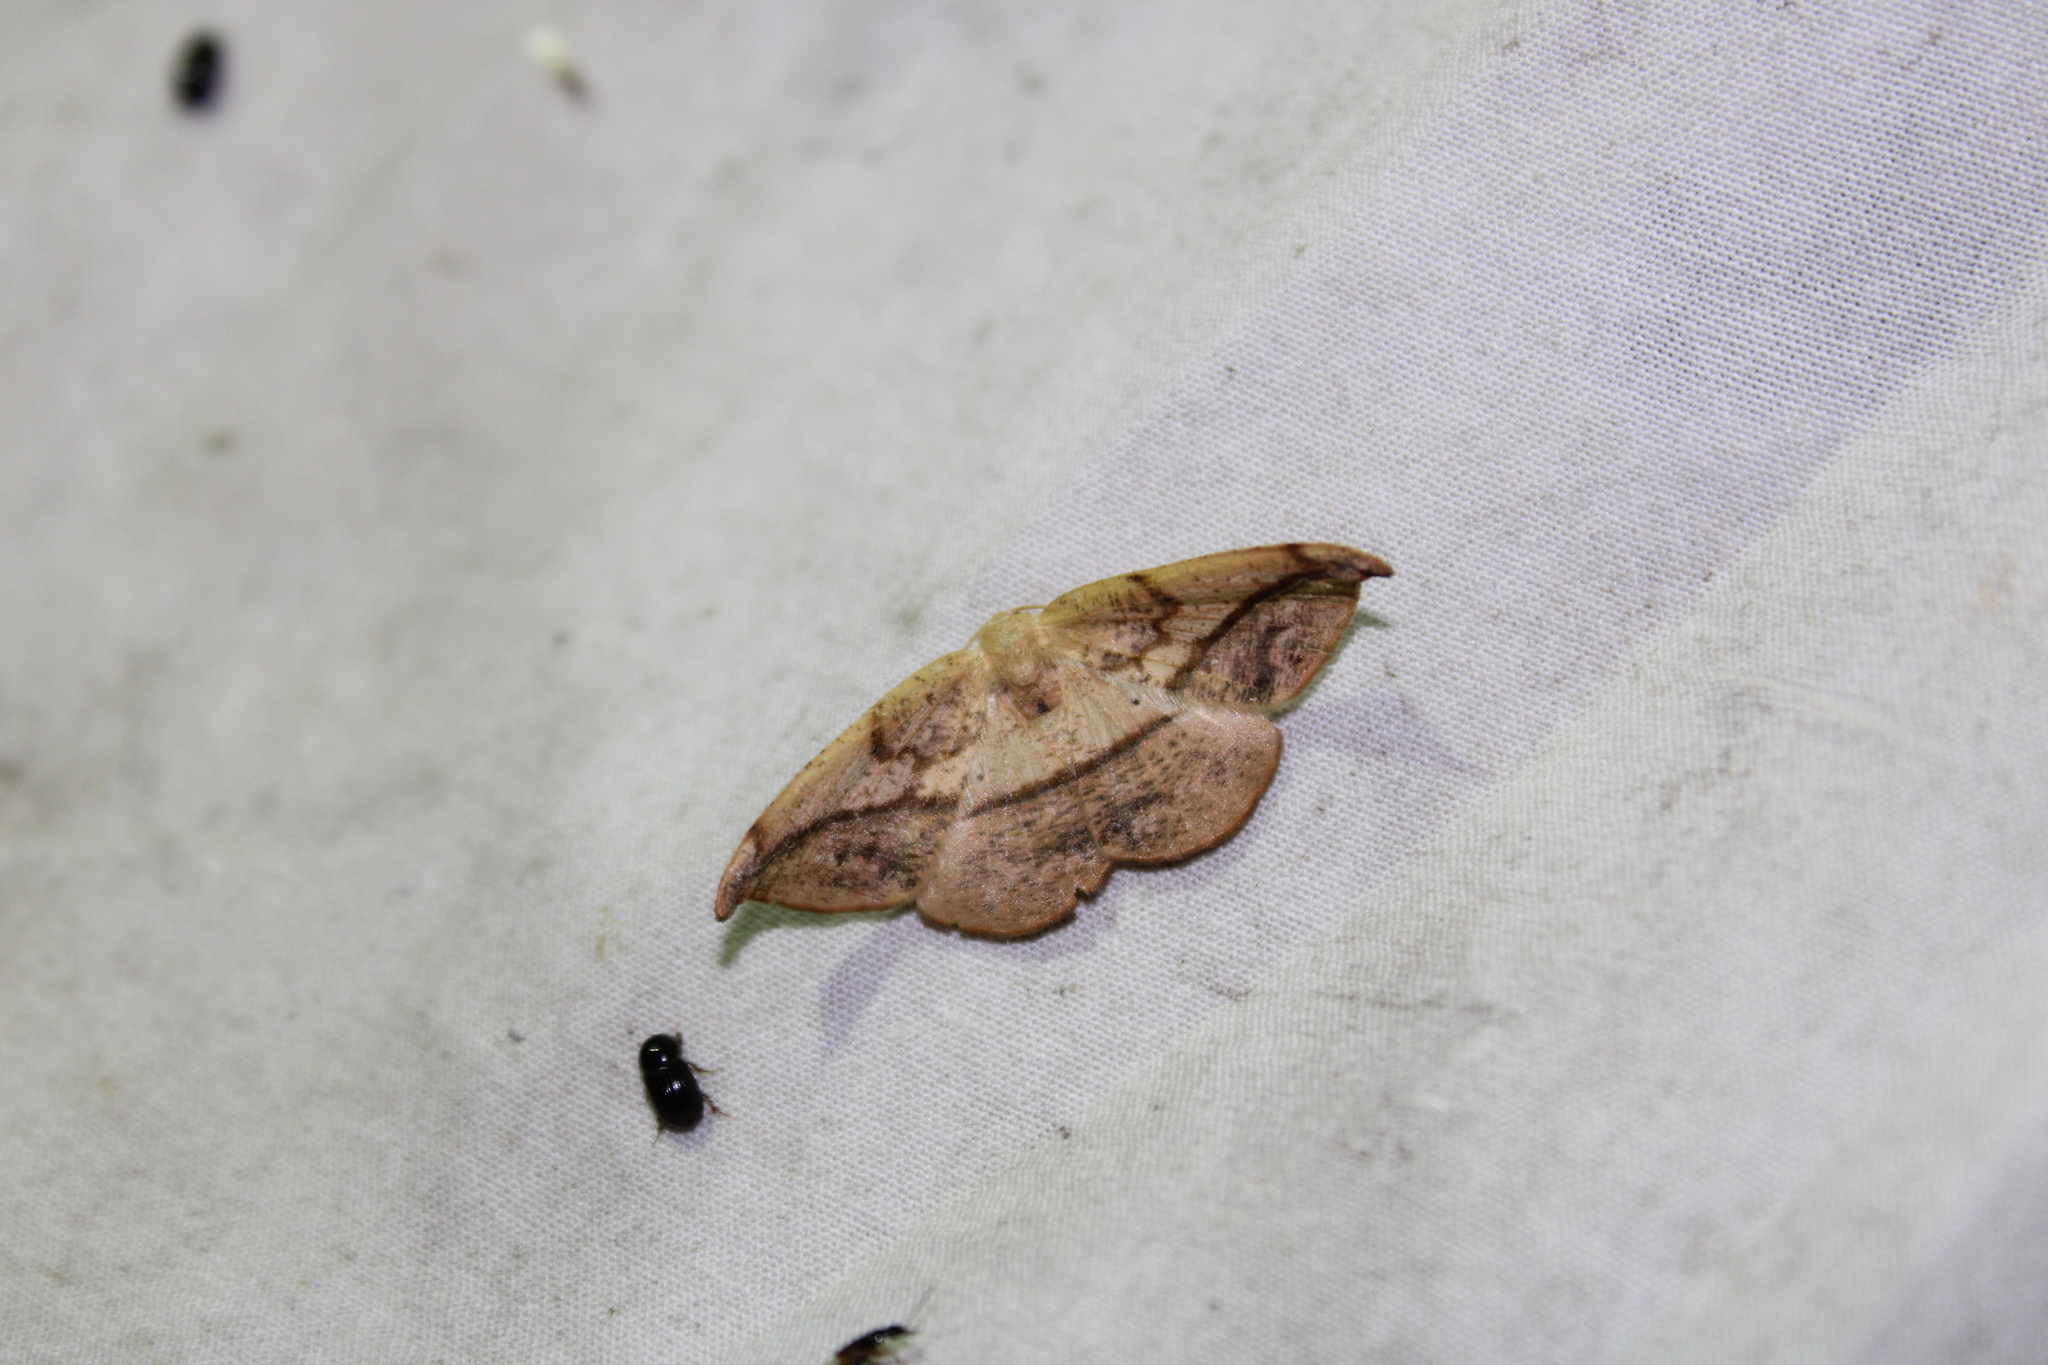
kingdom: Animalia
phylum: Arthropoda
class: Insecta
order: Lepidoptera
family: Geometridae
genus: Patalene
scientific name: Patalene olyzonaria
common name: Juniper geometer moth
